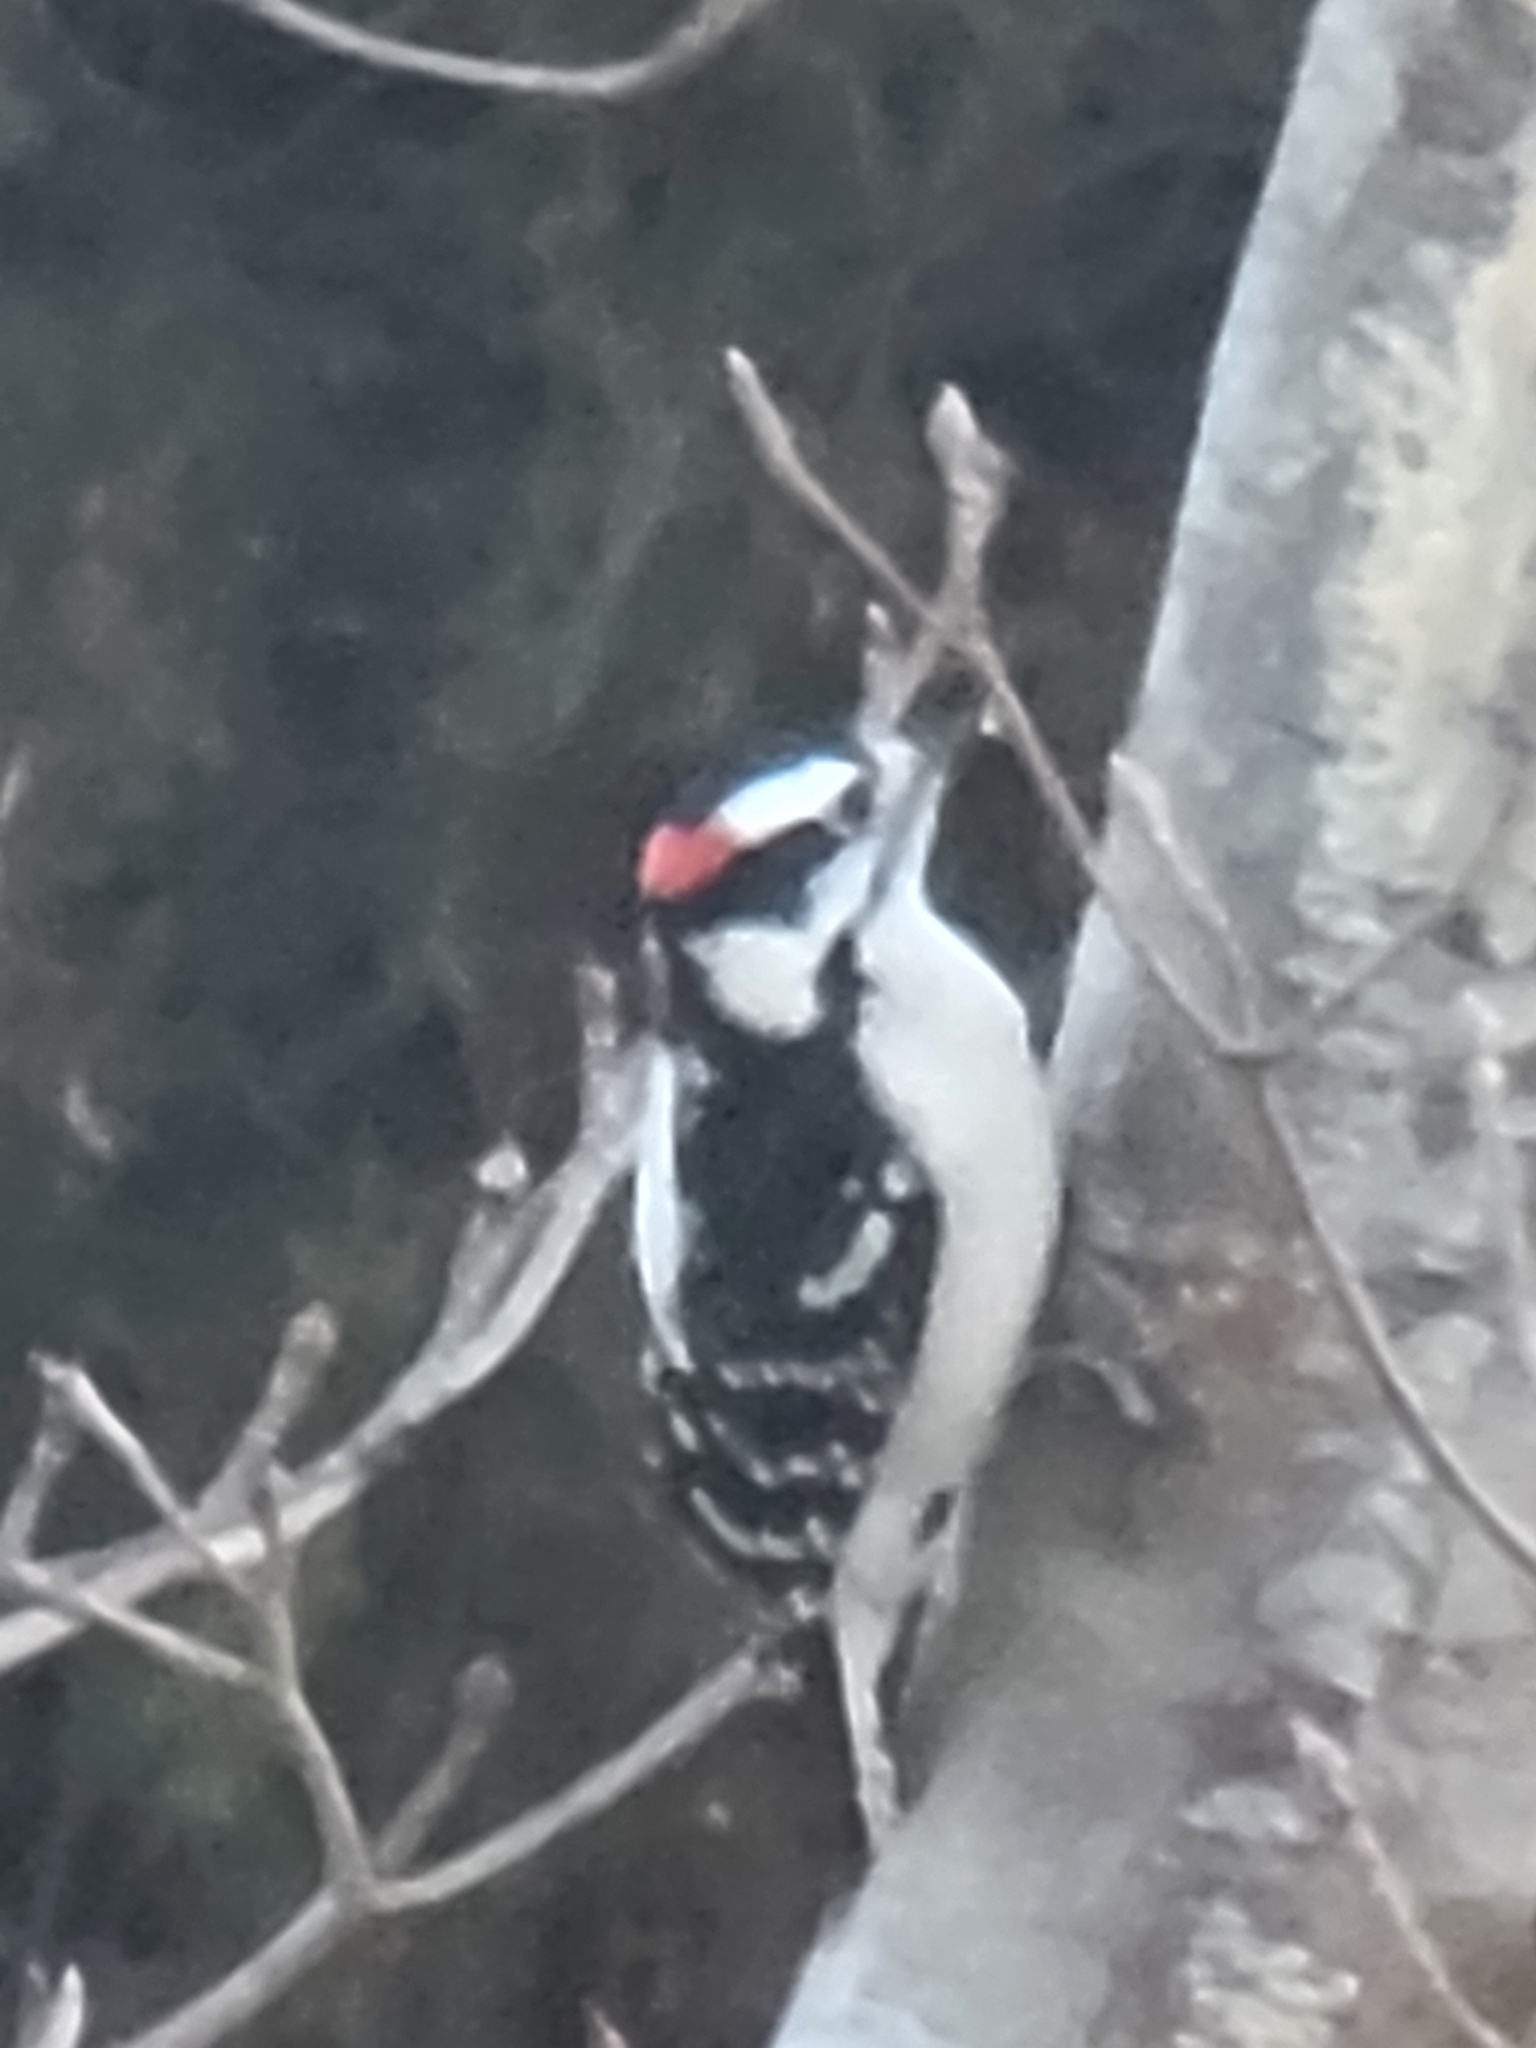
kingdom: Animalia
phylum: Chordata
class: Aves
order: Piciformes
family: Picidae
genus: Dryobates
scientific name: Dryobates pubescens
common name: Downy woodpecker
